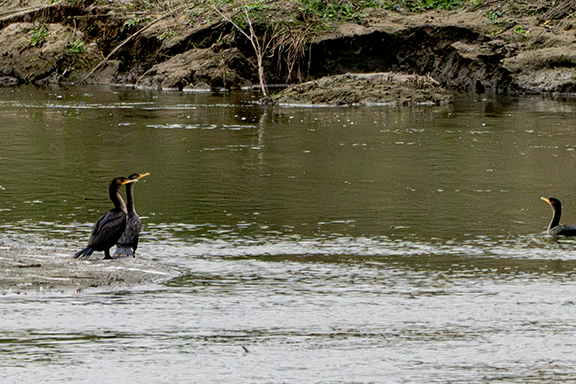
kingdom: Animalia
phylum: Chordata
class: Aves
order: Suliformes
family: Phalacrocoracidae
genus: Phalacrocorax
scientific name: Phalacrocorax auritus
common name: Double-crested cormorant
